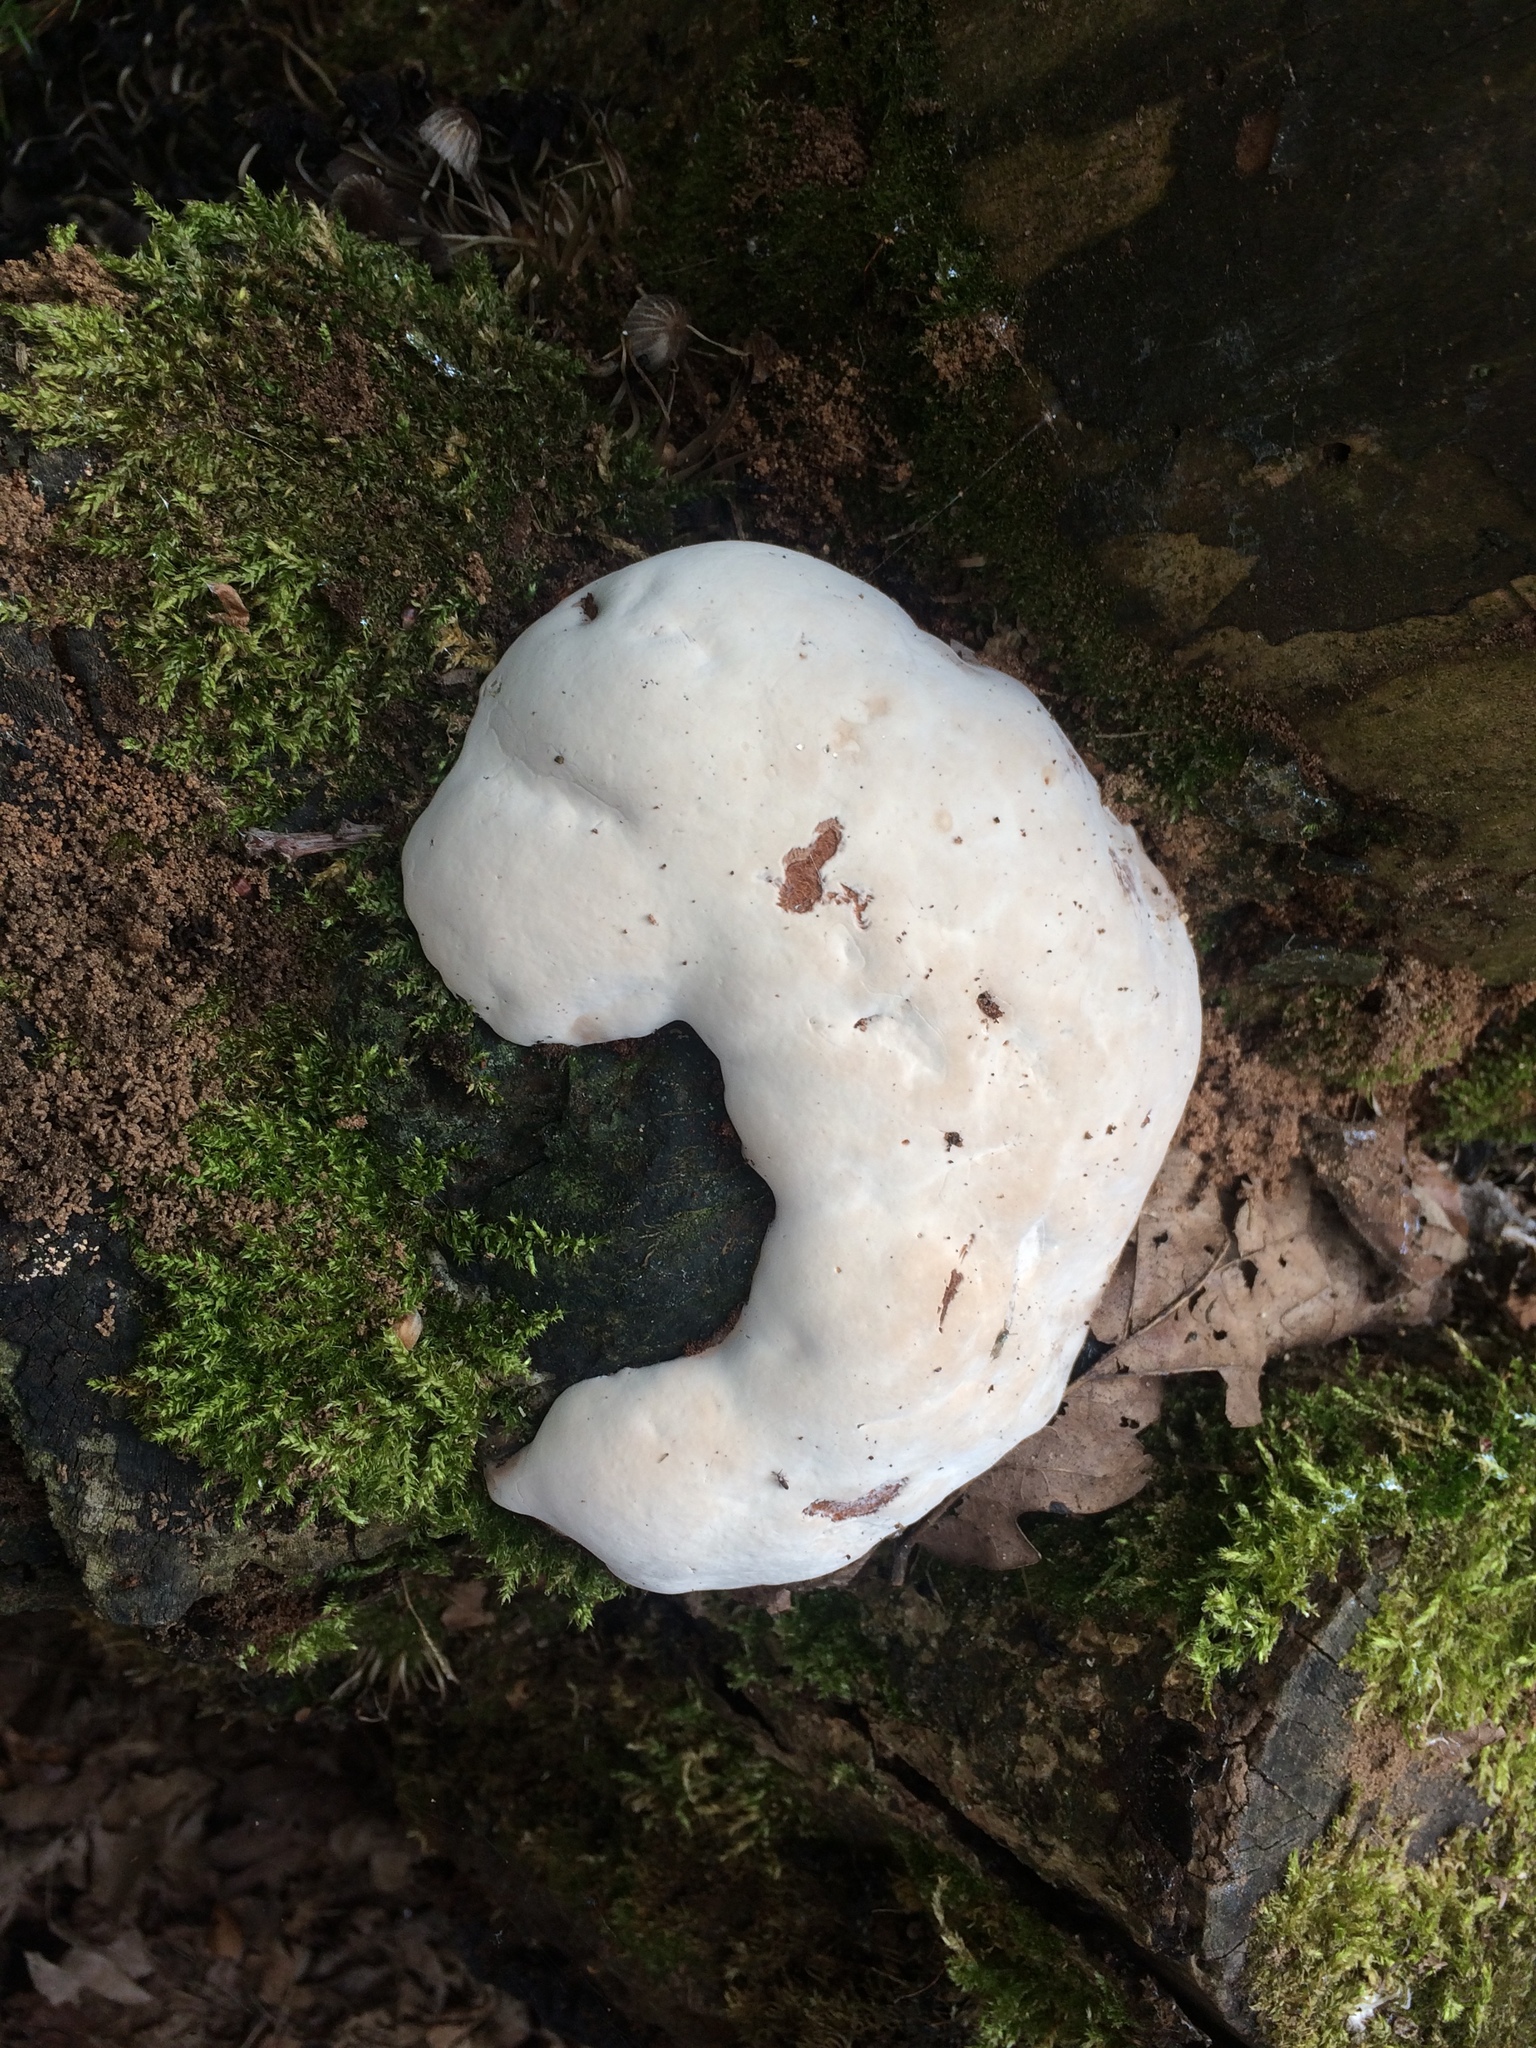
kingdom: Fungi
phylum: Basidiomycota
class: Agaricomycetes
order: Polyporales
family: Incrustoporiaceae
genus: Tyromyces
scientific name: Tyromyces chioneus
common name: White cheese polypore
